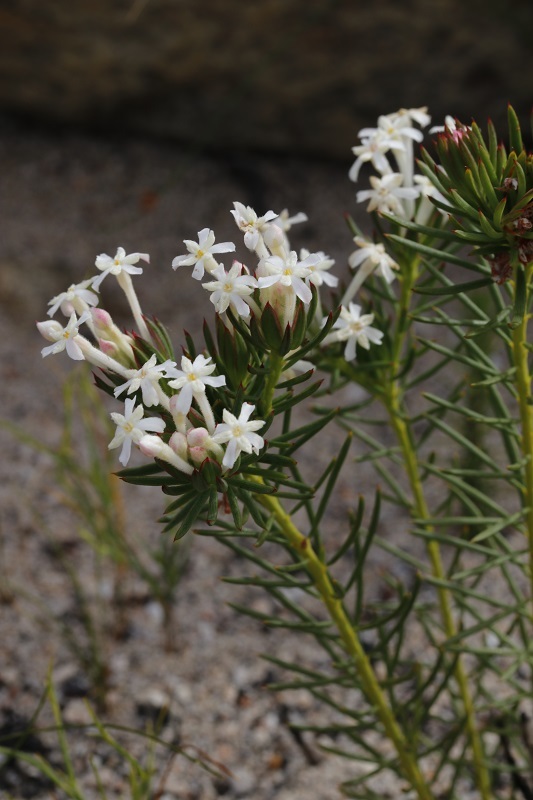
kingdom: Plantae
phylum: Tracheophyta
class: Magnoliopsida
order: Malvales
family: Thymelaeaceae
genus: Gnidia
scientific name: Gnidia pinifolia
